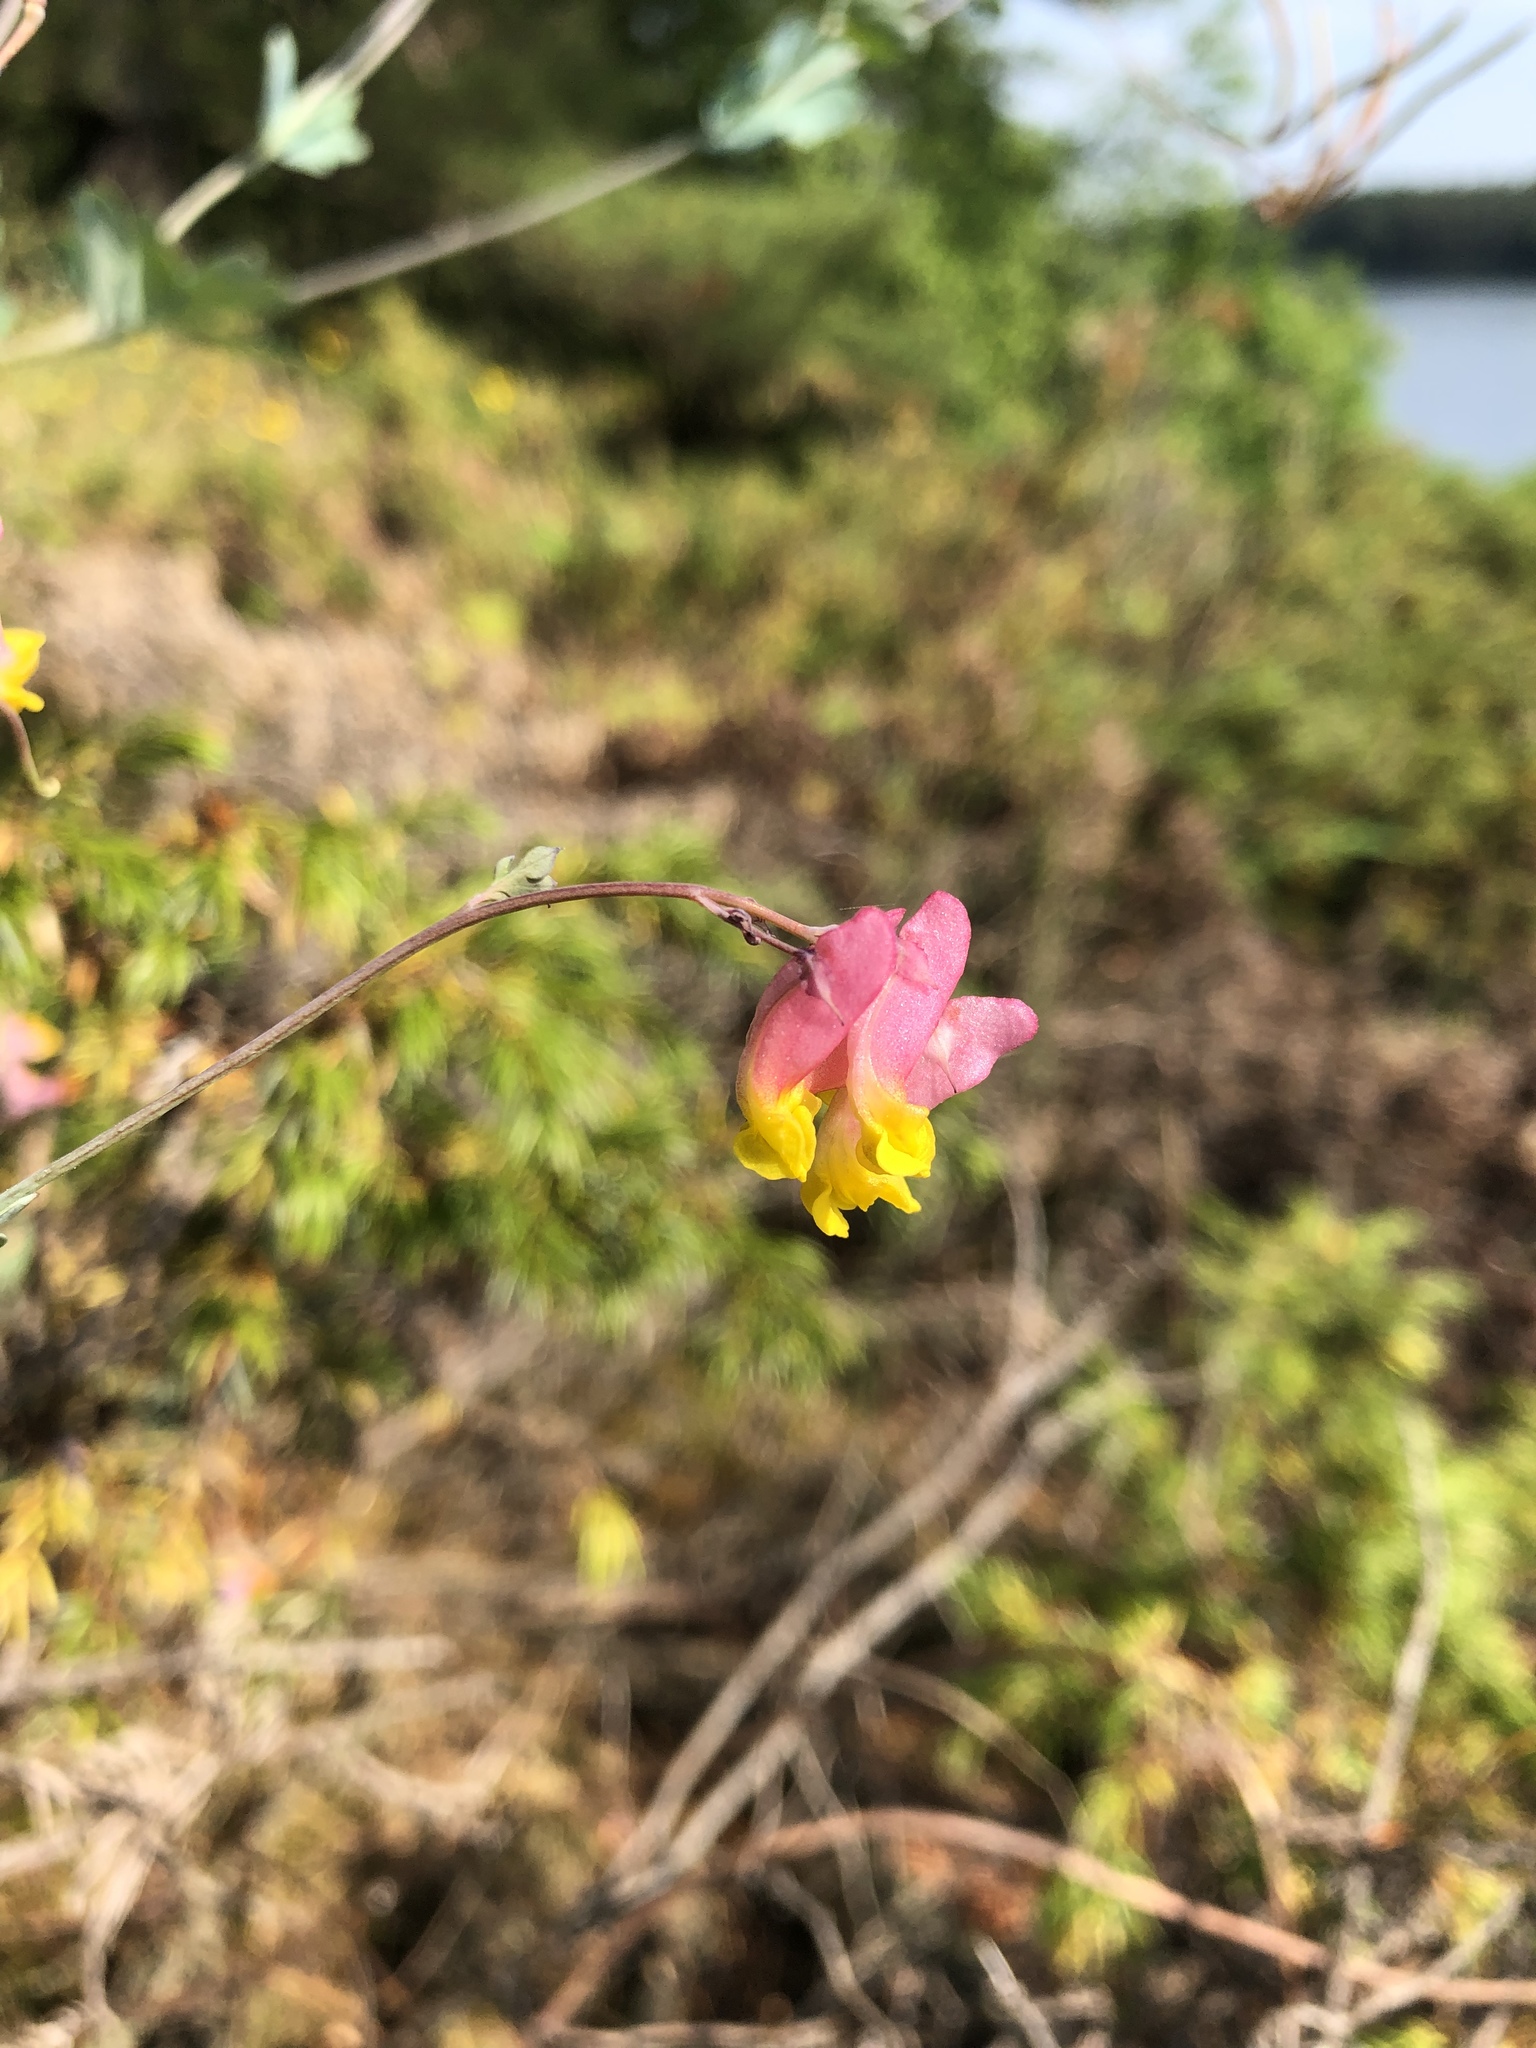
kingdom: Plantae
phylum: Tracheophyta
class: Magnoliopsida
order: Ranunculales
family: Papaveraceae
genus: Capnoides
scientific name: Capnoides sempervirens
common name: Rock harlequin
